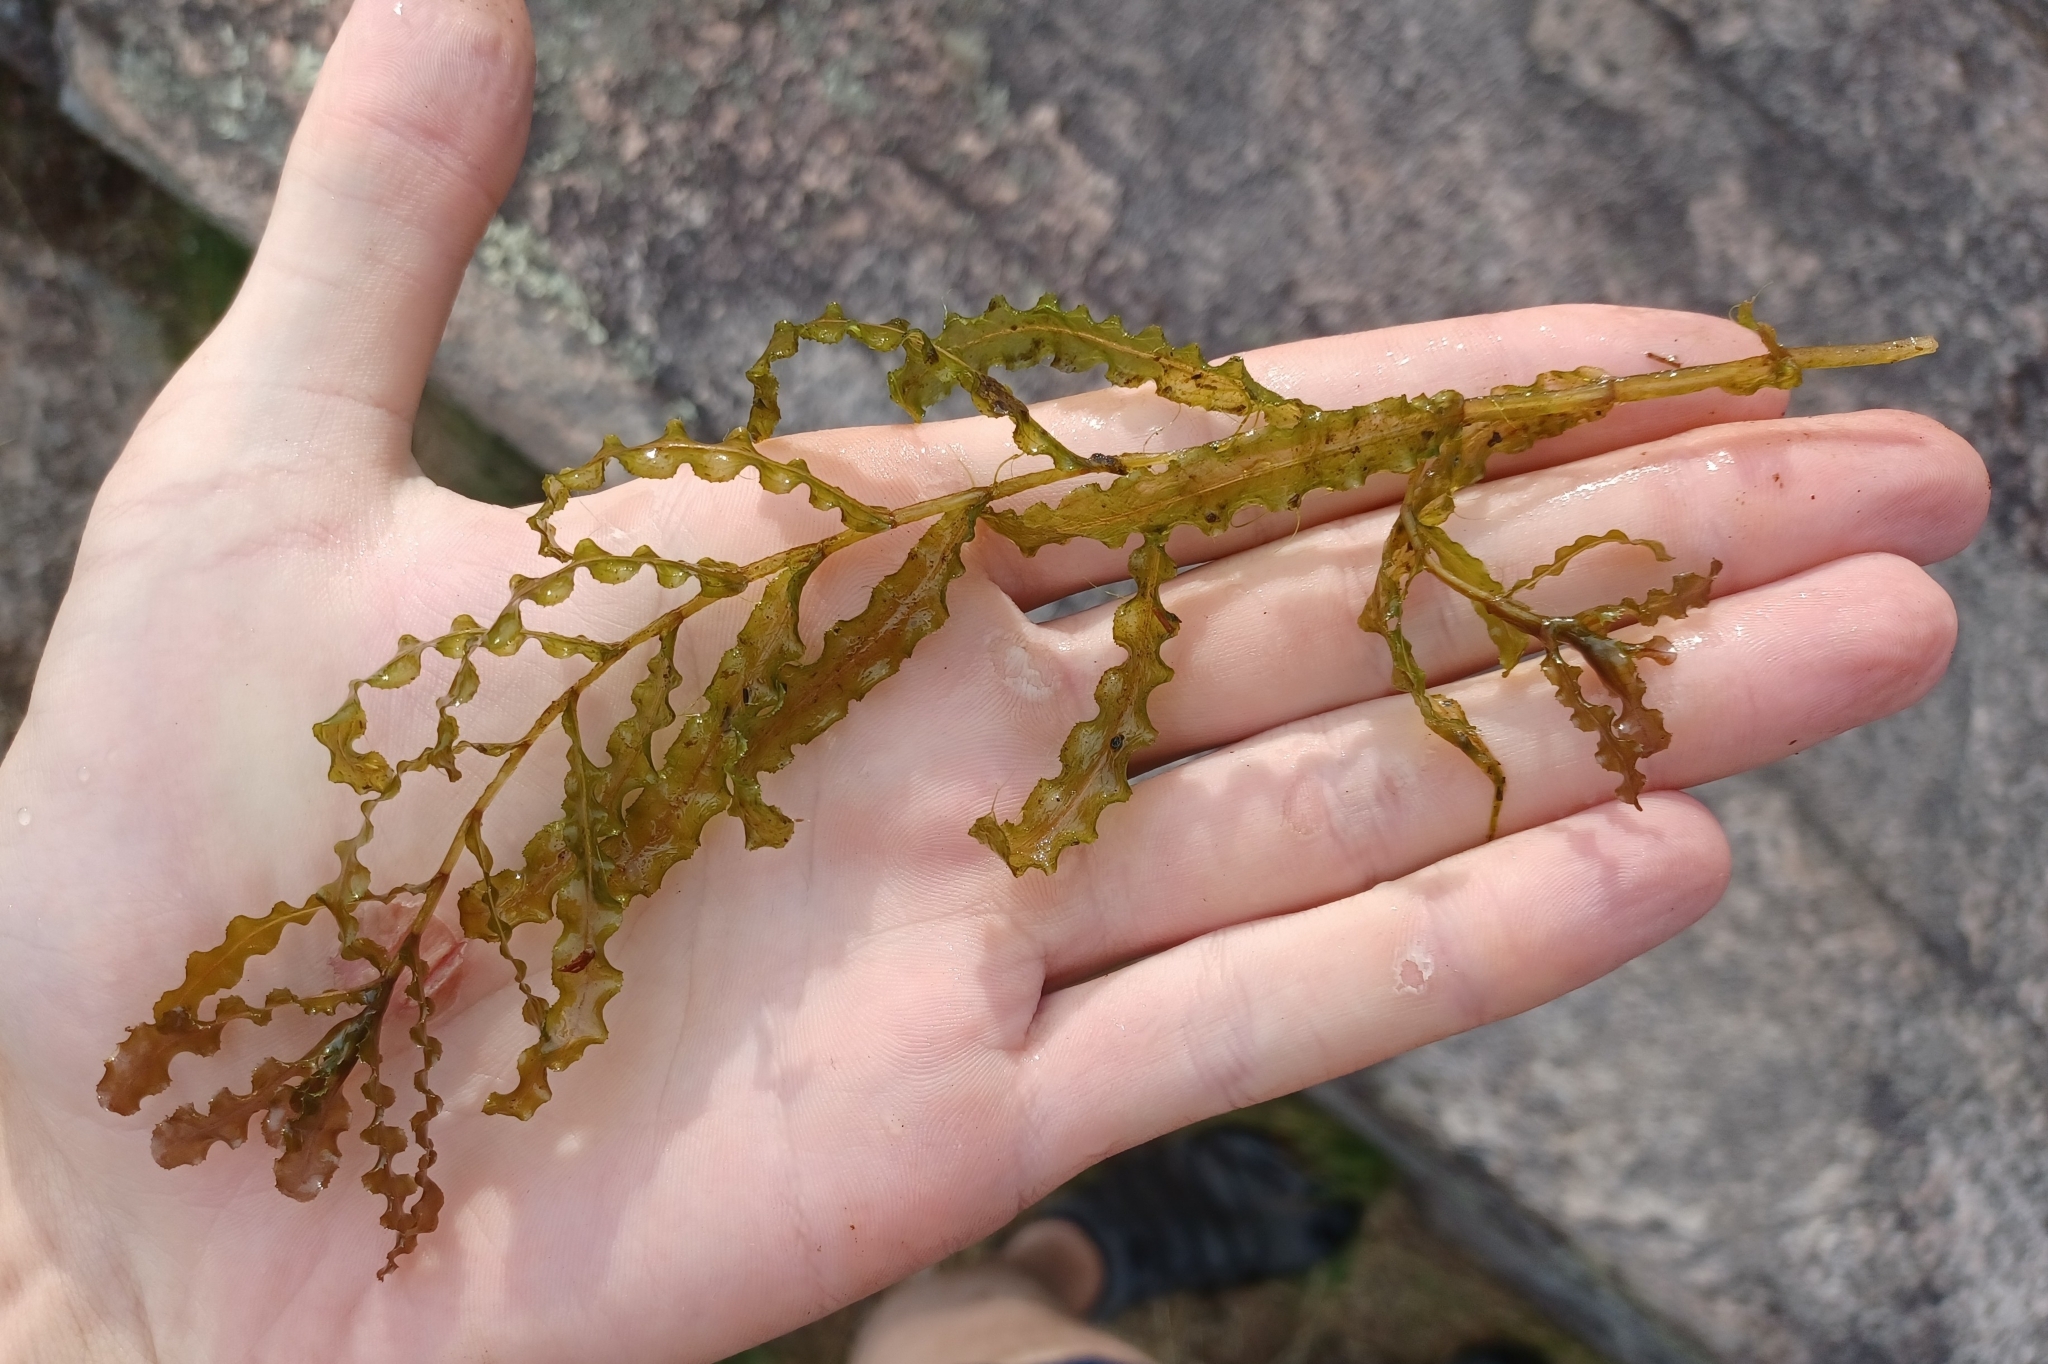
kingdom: Plantae
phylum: Tracheophyta
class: Liliopsida
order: Alismatales
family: Potamogetonaceae
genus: Potamogeton
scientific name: Potamogeton crispus
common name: Curled pondweed
